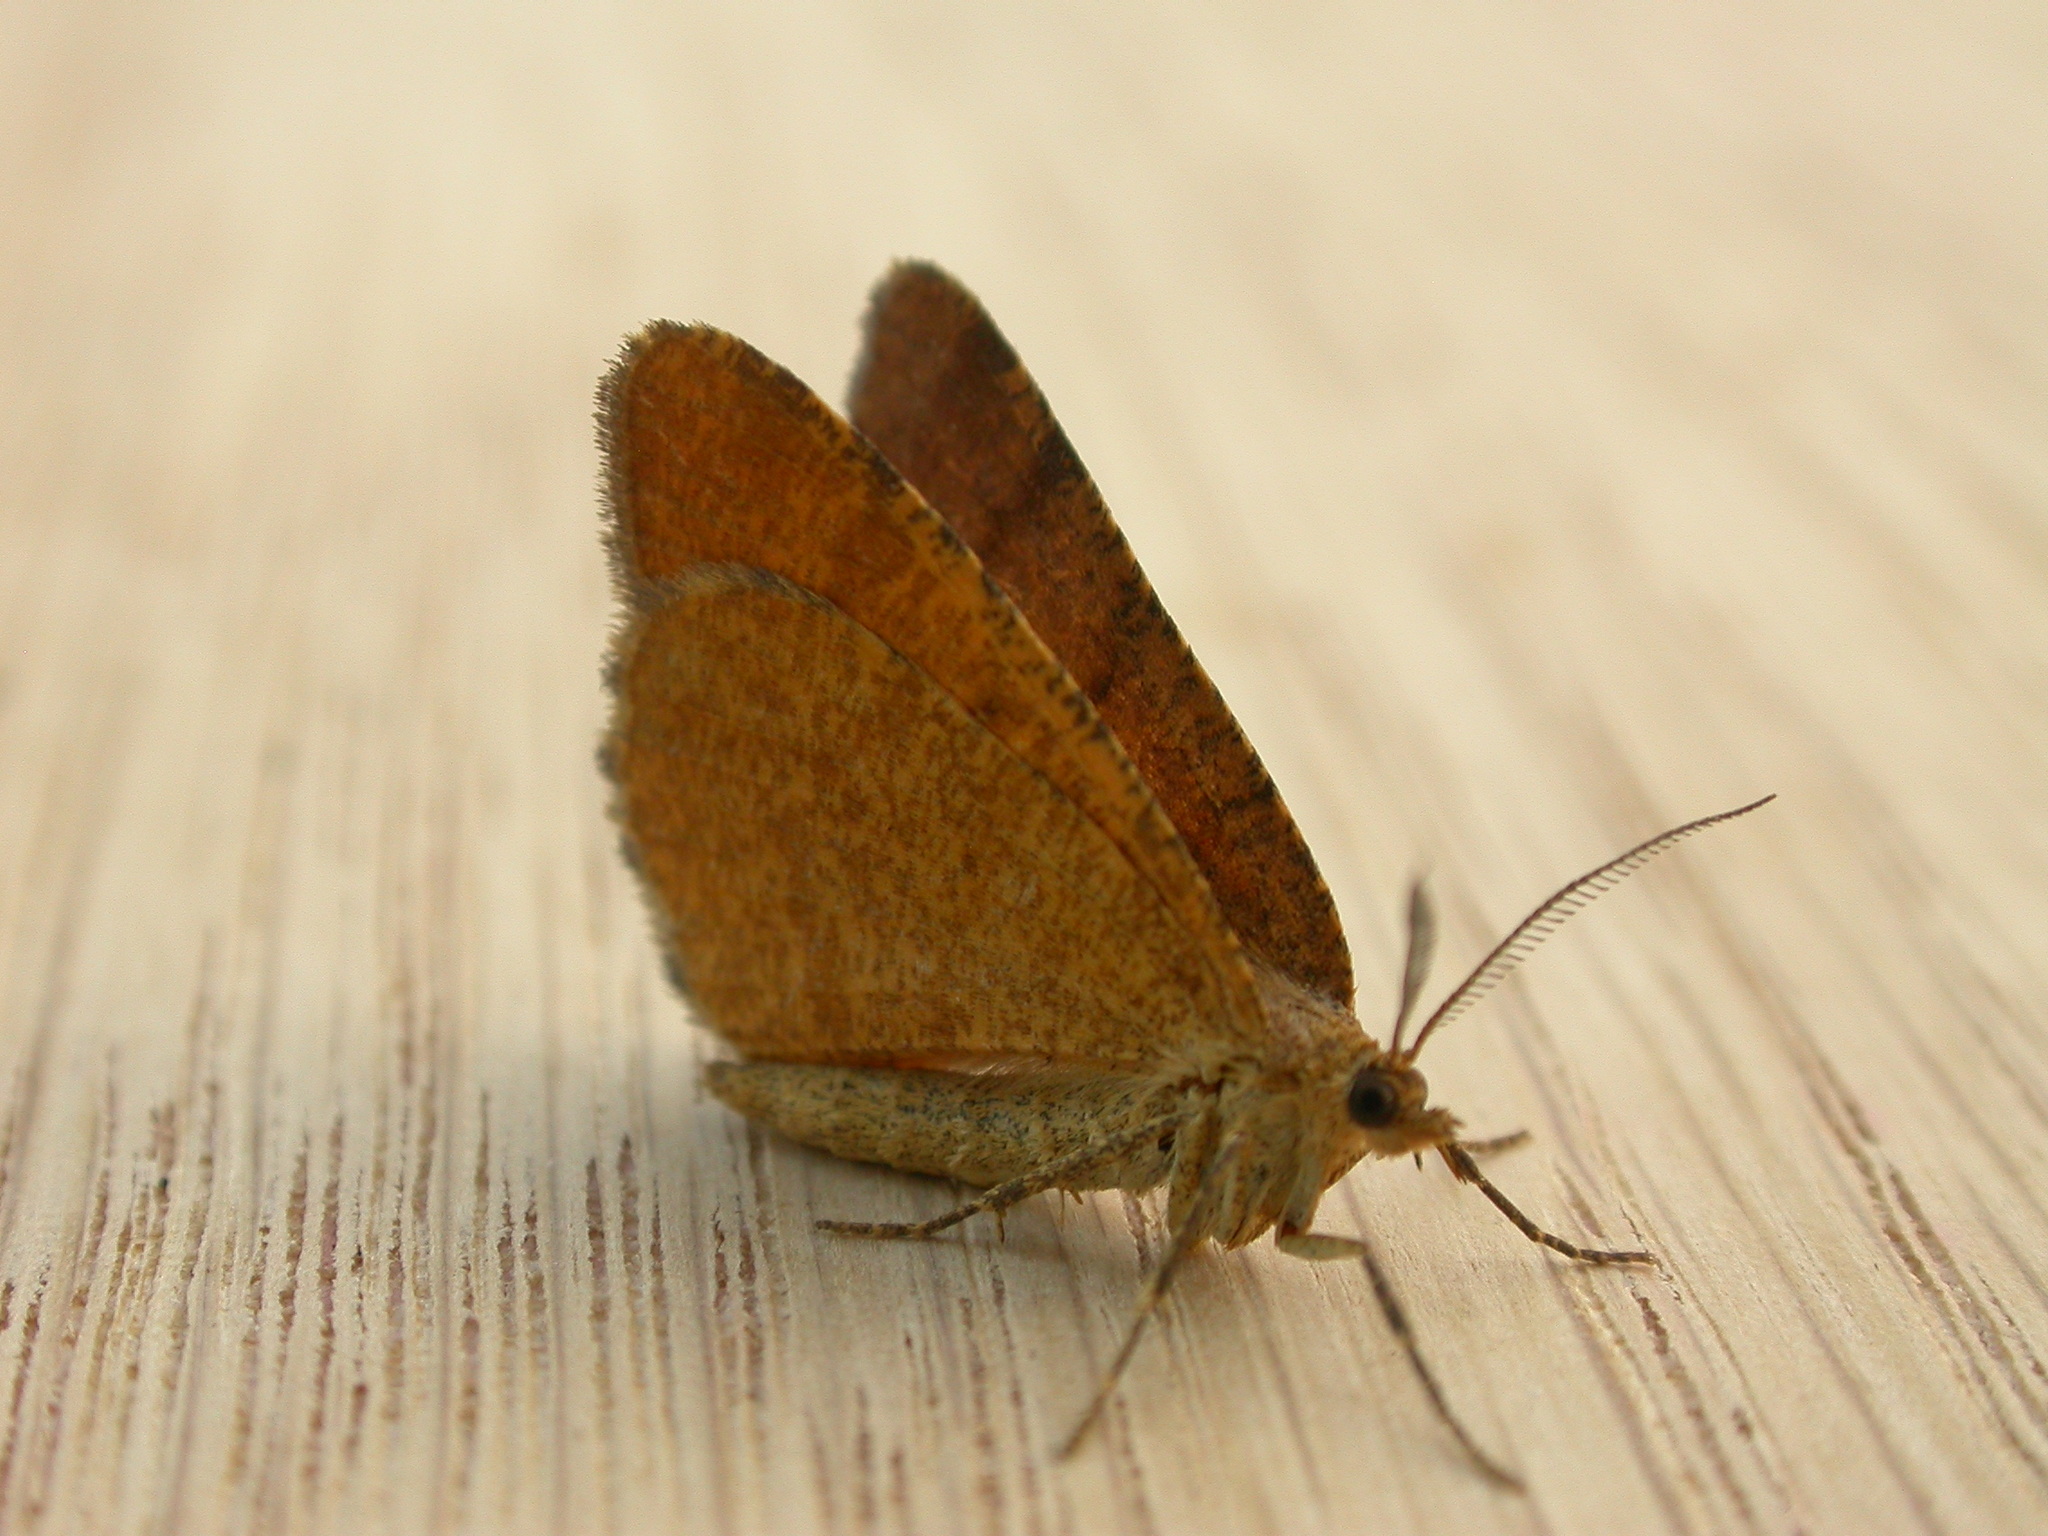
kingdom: Animalia
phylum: Arthropoda
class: Insecta
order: Lepidoptera
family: Geometridae
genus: Macaria
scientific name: Macaria brunneata
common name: Rannoch looper
